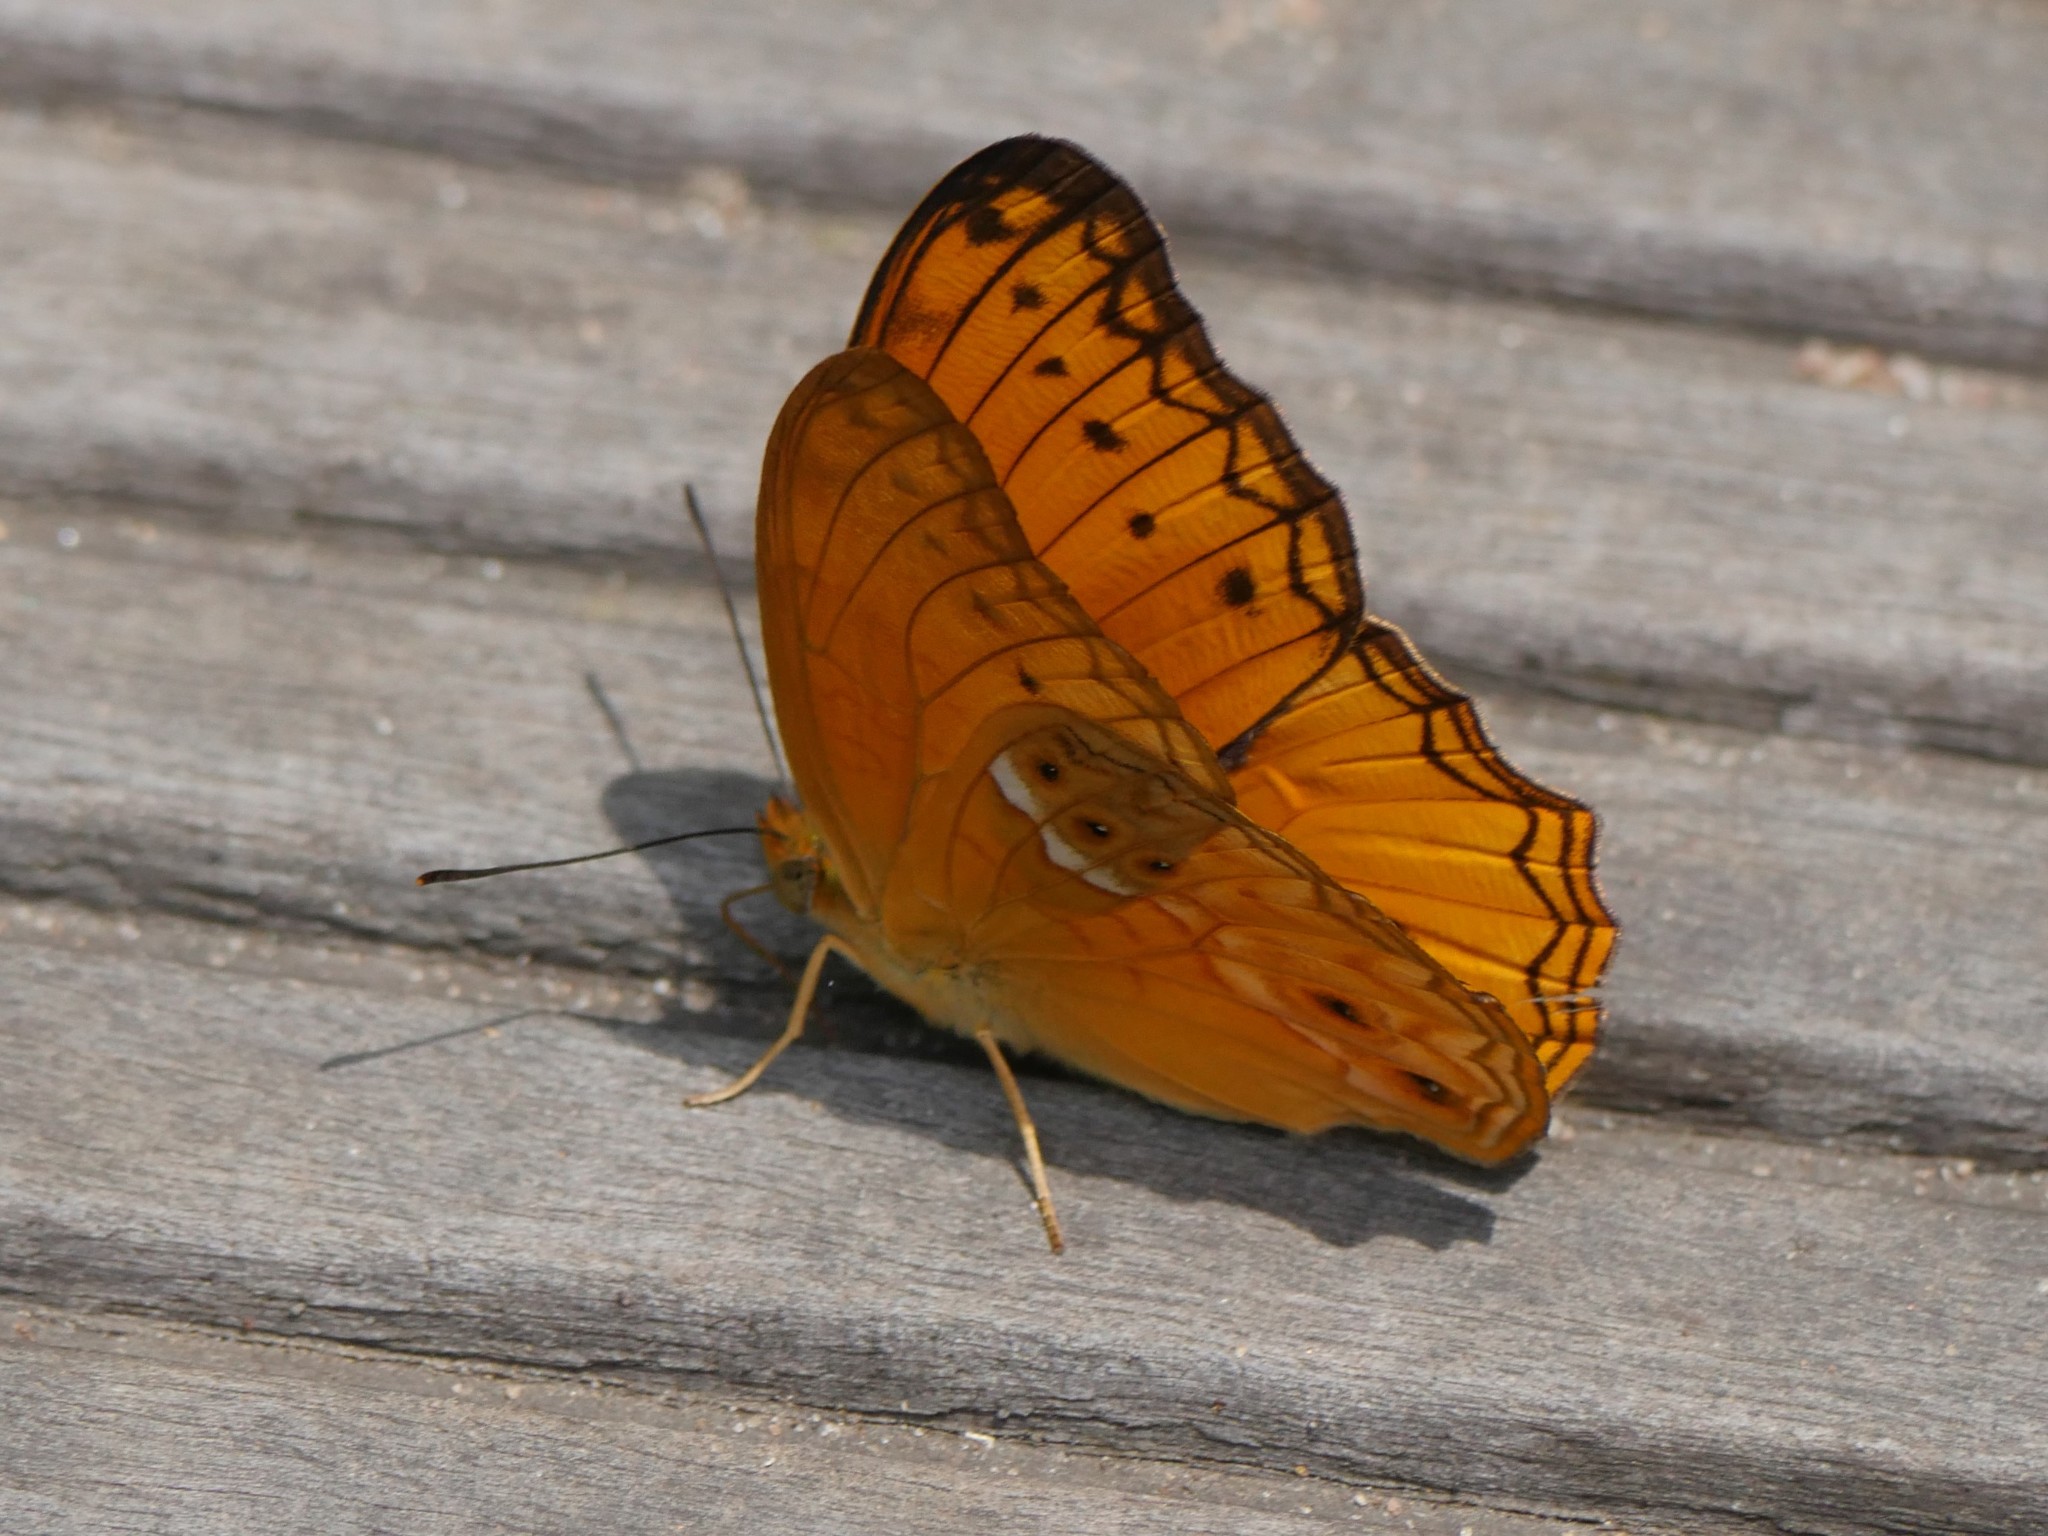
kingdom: Animalia
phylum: Arthropoda
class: Insecta
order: Lepidoptera
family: Nymphalidae
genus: Lachnoptera
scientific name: Lachnoptera iole
